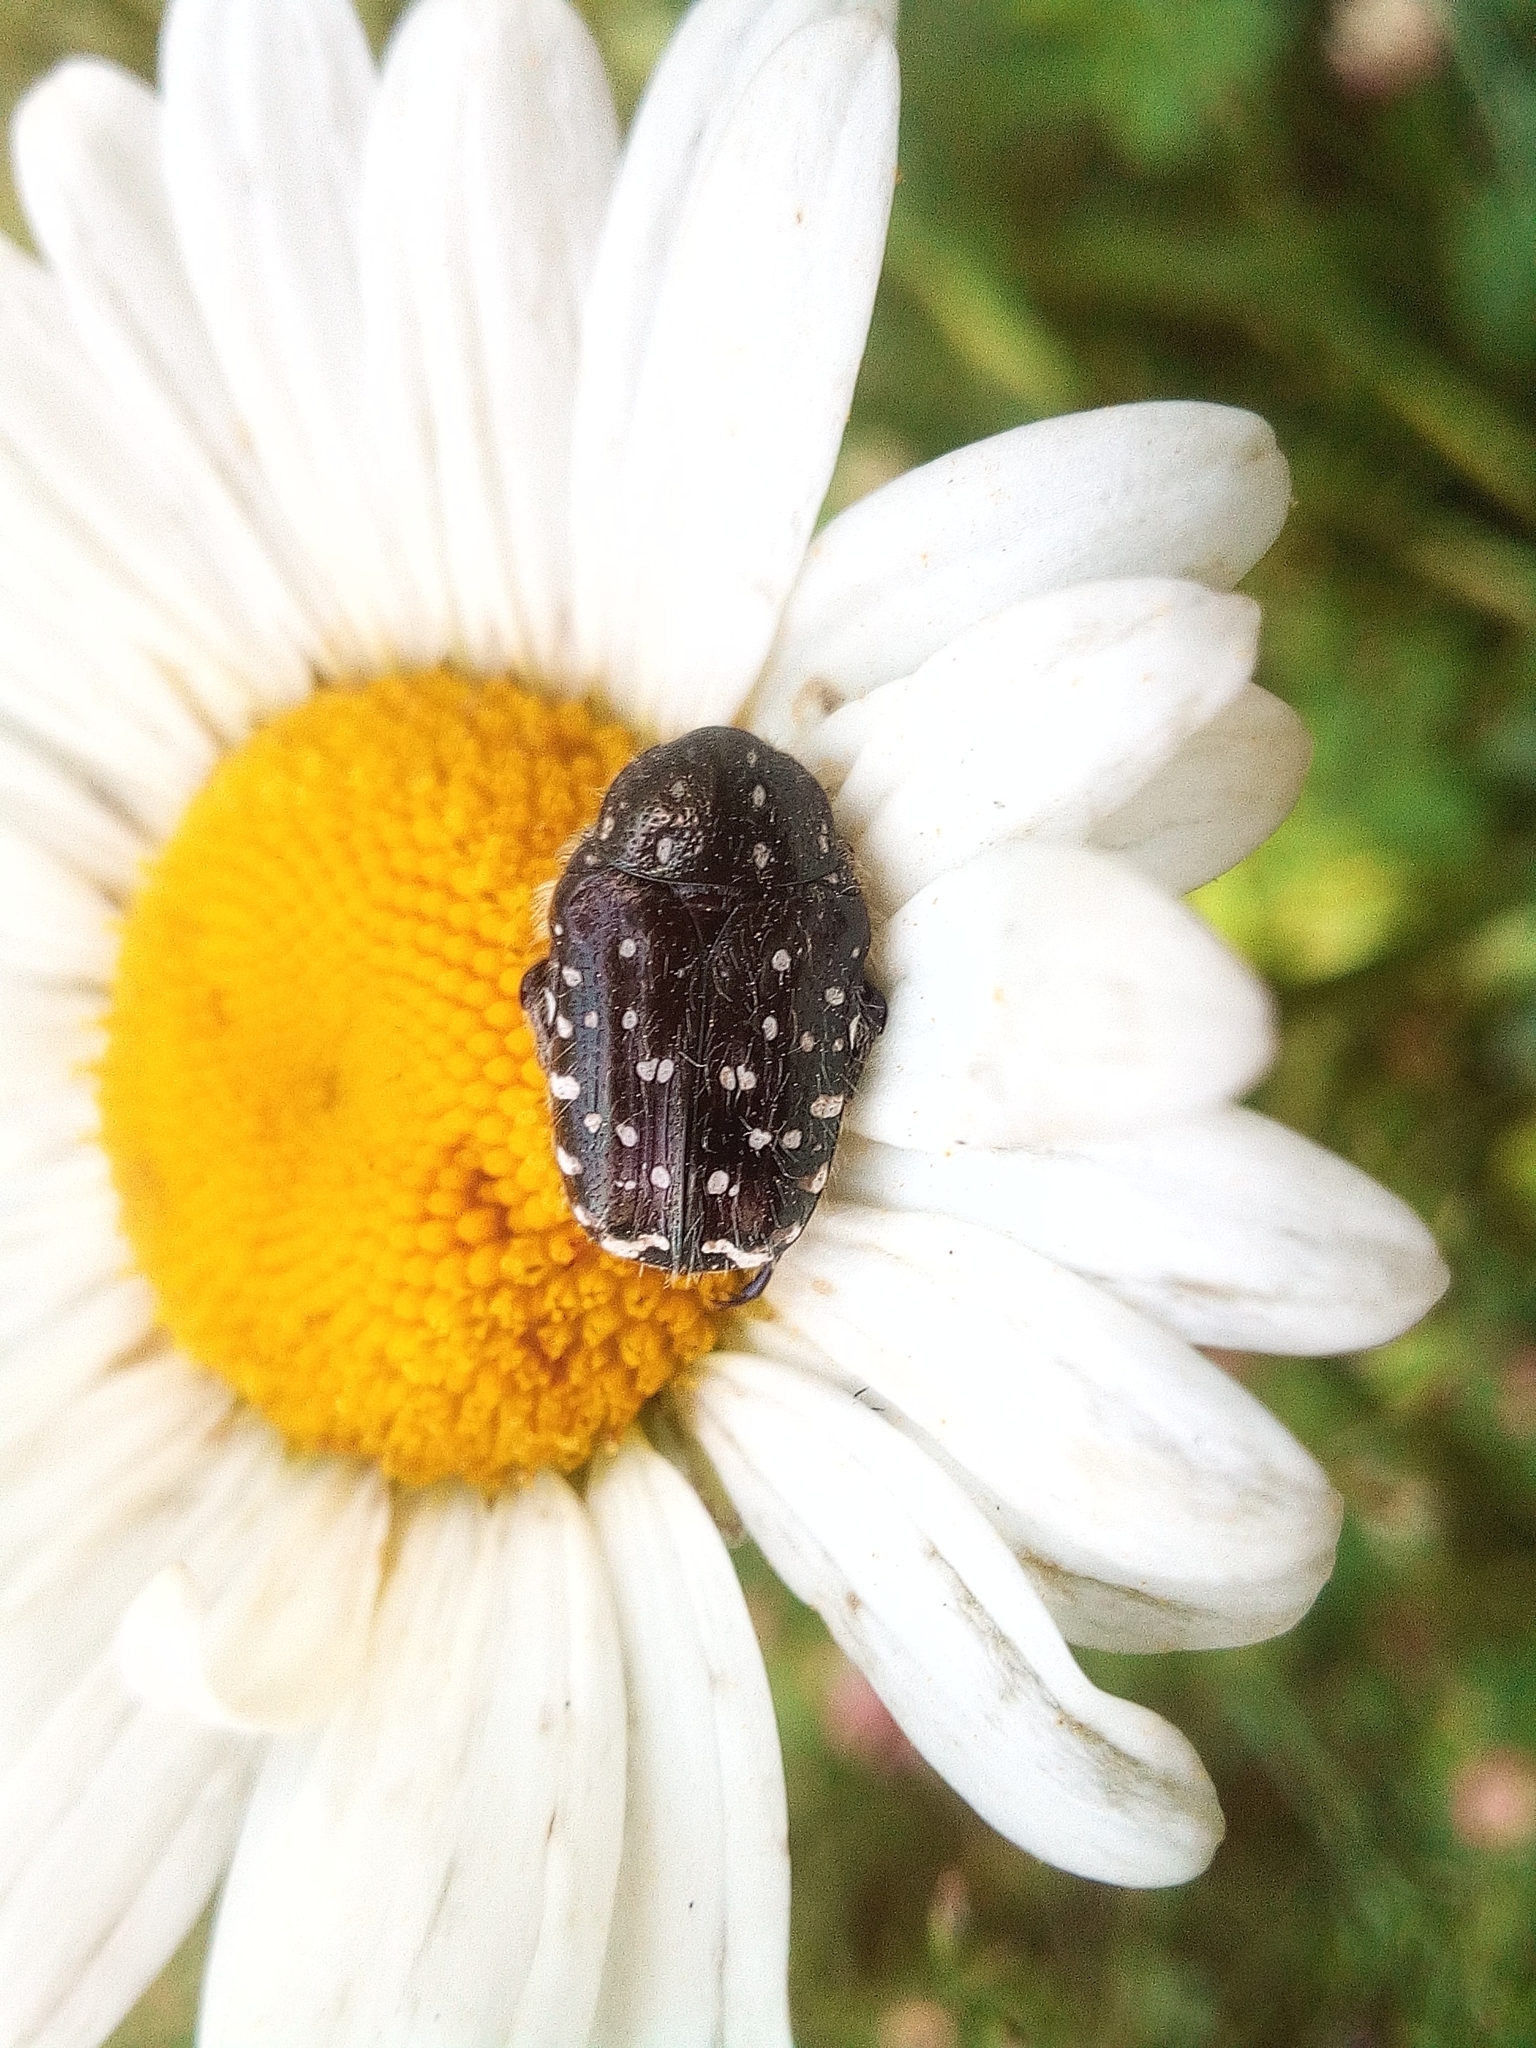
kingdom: Animalia
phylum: Arthropoda
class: Insecta
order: Coleoptera
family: Scarabaeidae
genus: Oxythyrea
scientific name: Oxythyrea funesta
